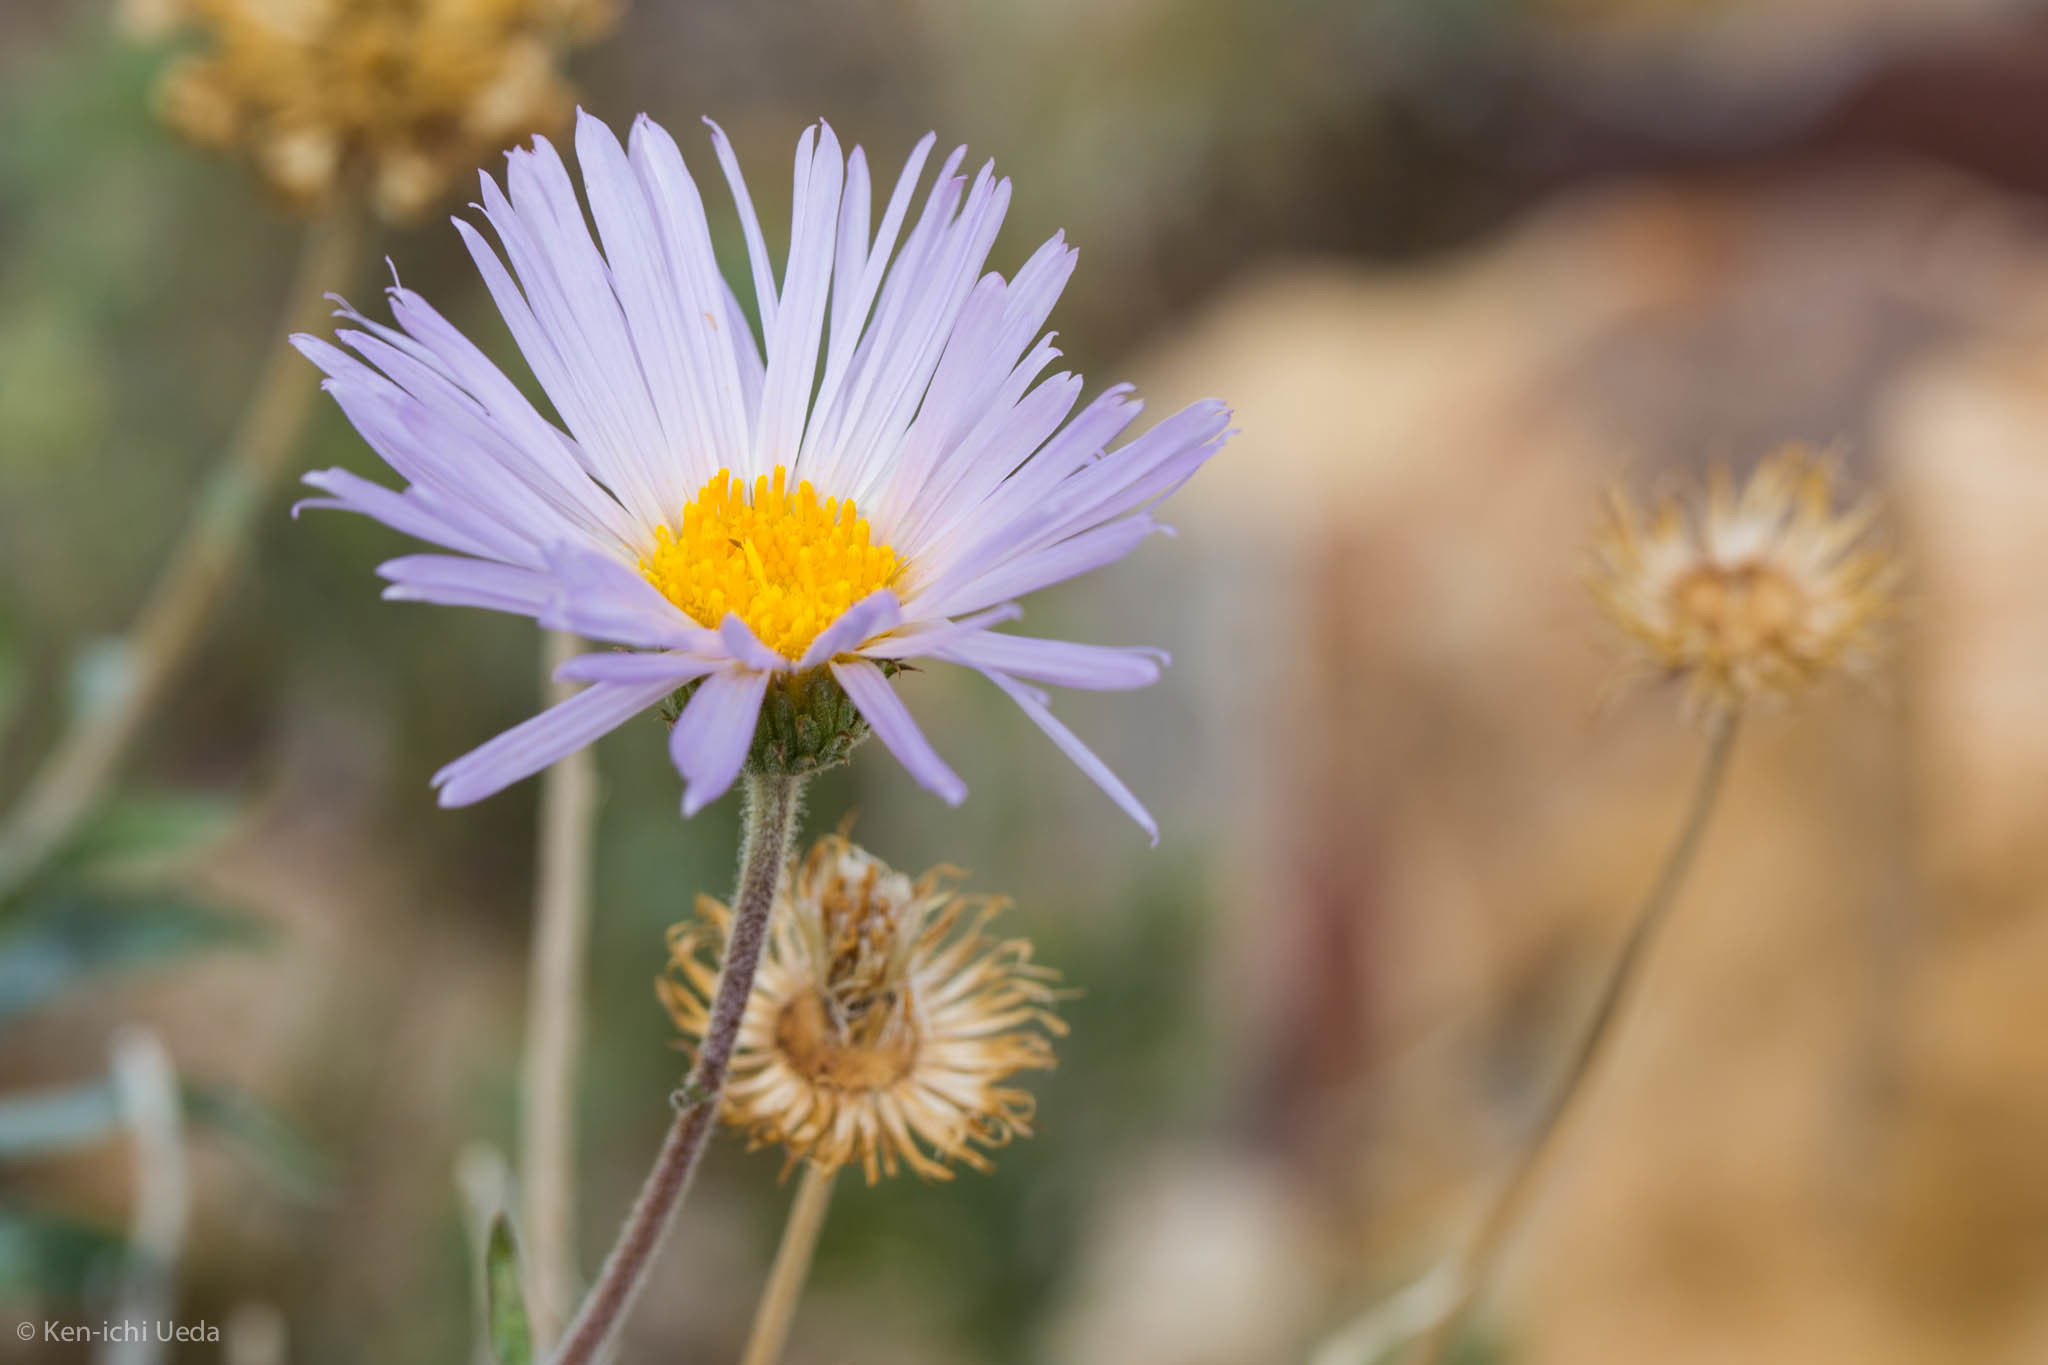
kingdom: Plantae
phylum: Tracheophyta
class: Magnoliopsida
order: Asterales
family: Asteraceae
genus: Xylorhiza
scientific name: Xylorhiza tortifolia
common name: Hurt-leaf woody-aster
